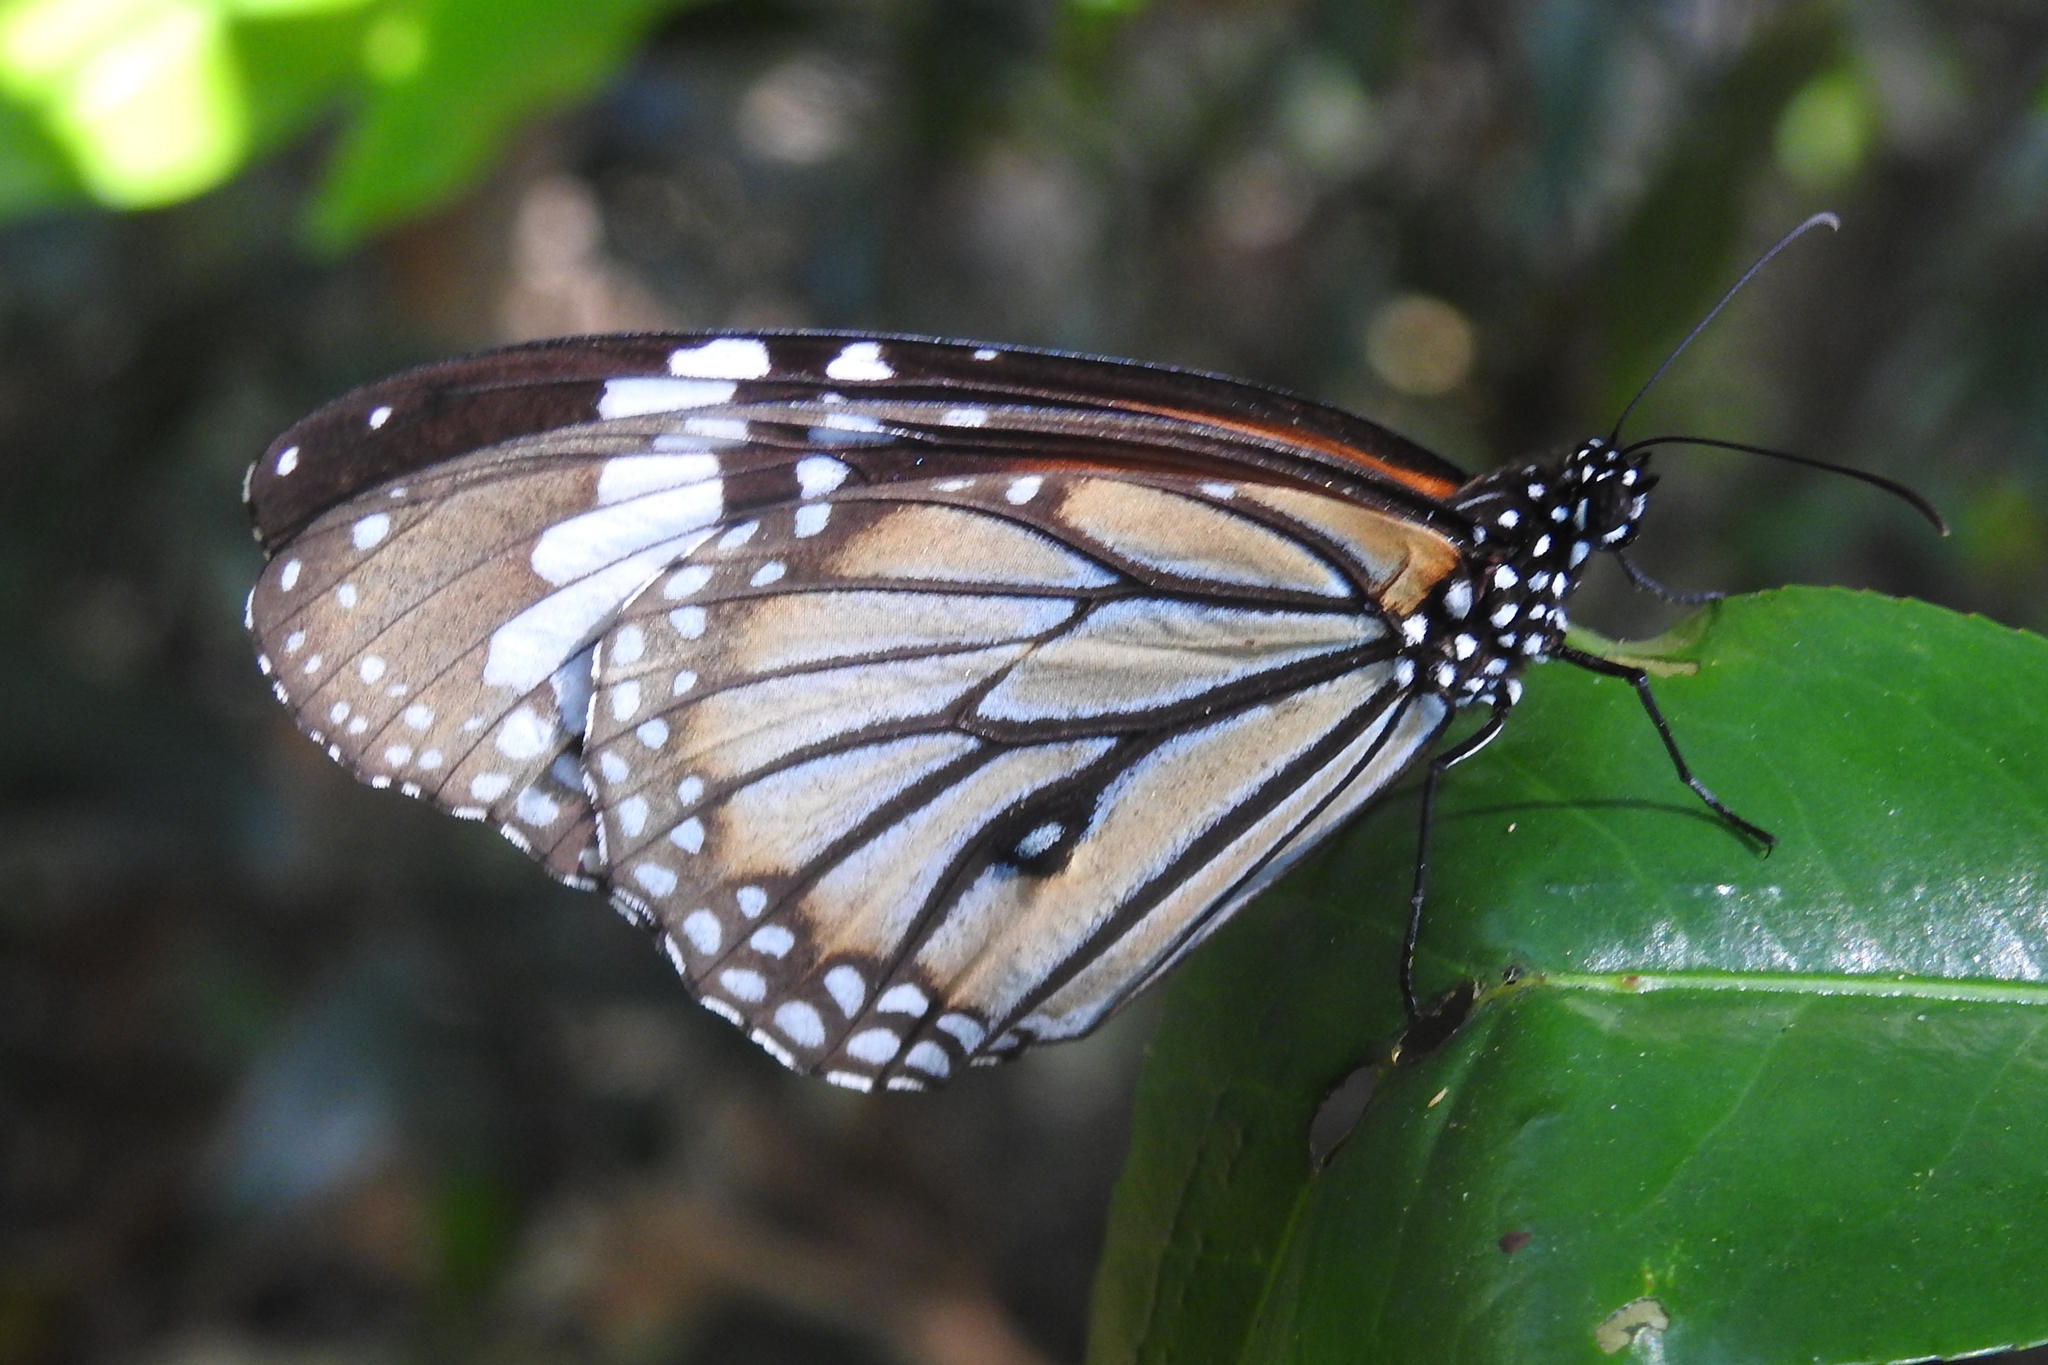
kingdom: Animalia
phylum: Arthropoda
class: Insecta
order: Lepidoptera
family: Nymphalidae
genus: Danaus
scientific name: Danaus genutia
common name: Common tiger butterfly
